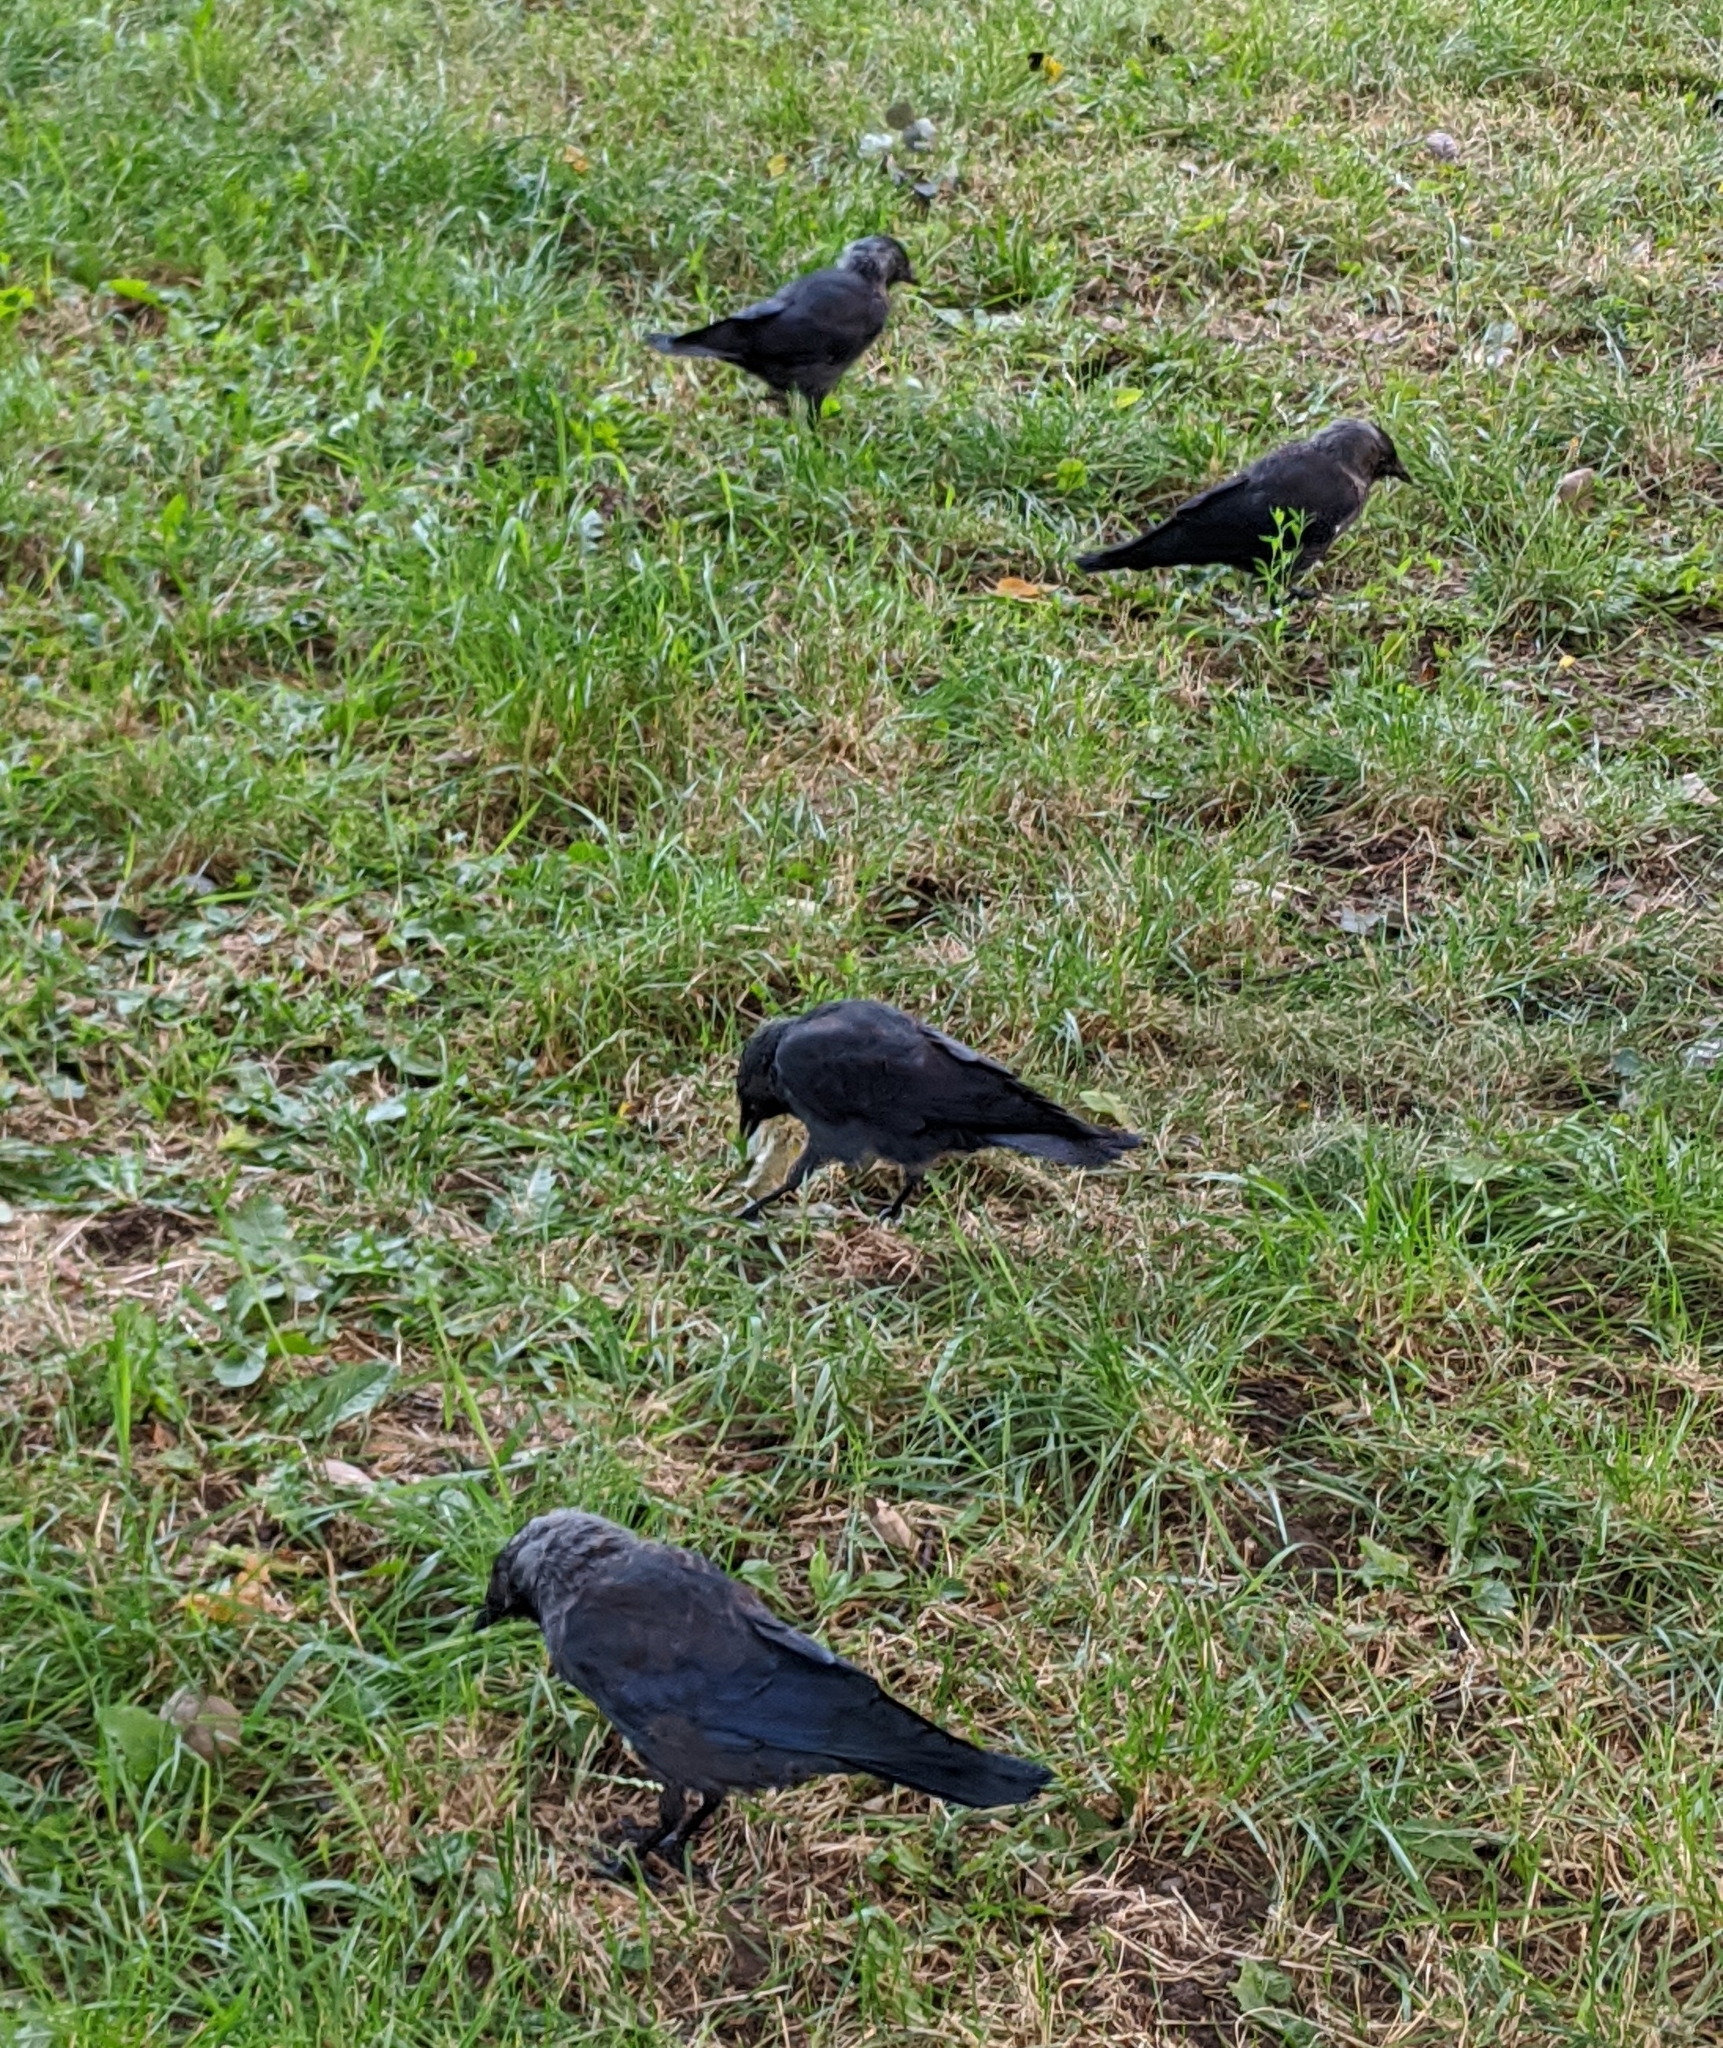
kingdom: Animalia
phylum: Chordata
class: Aves
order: Passeriformes
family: Corvidae
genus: Coloeus
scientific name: Coloeus monedula
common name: Western jackdaw
